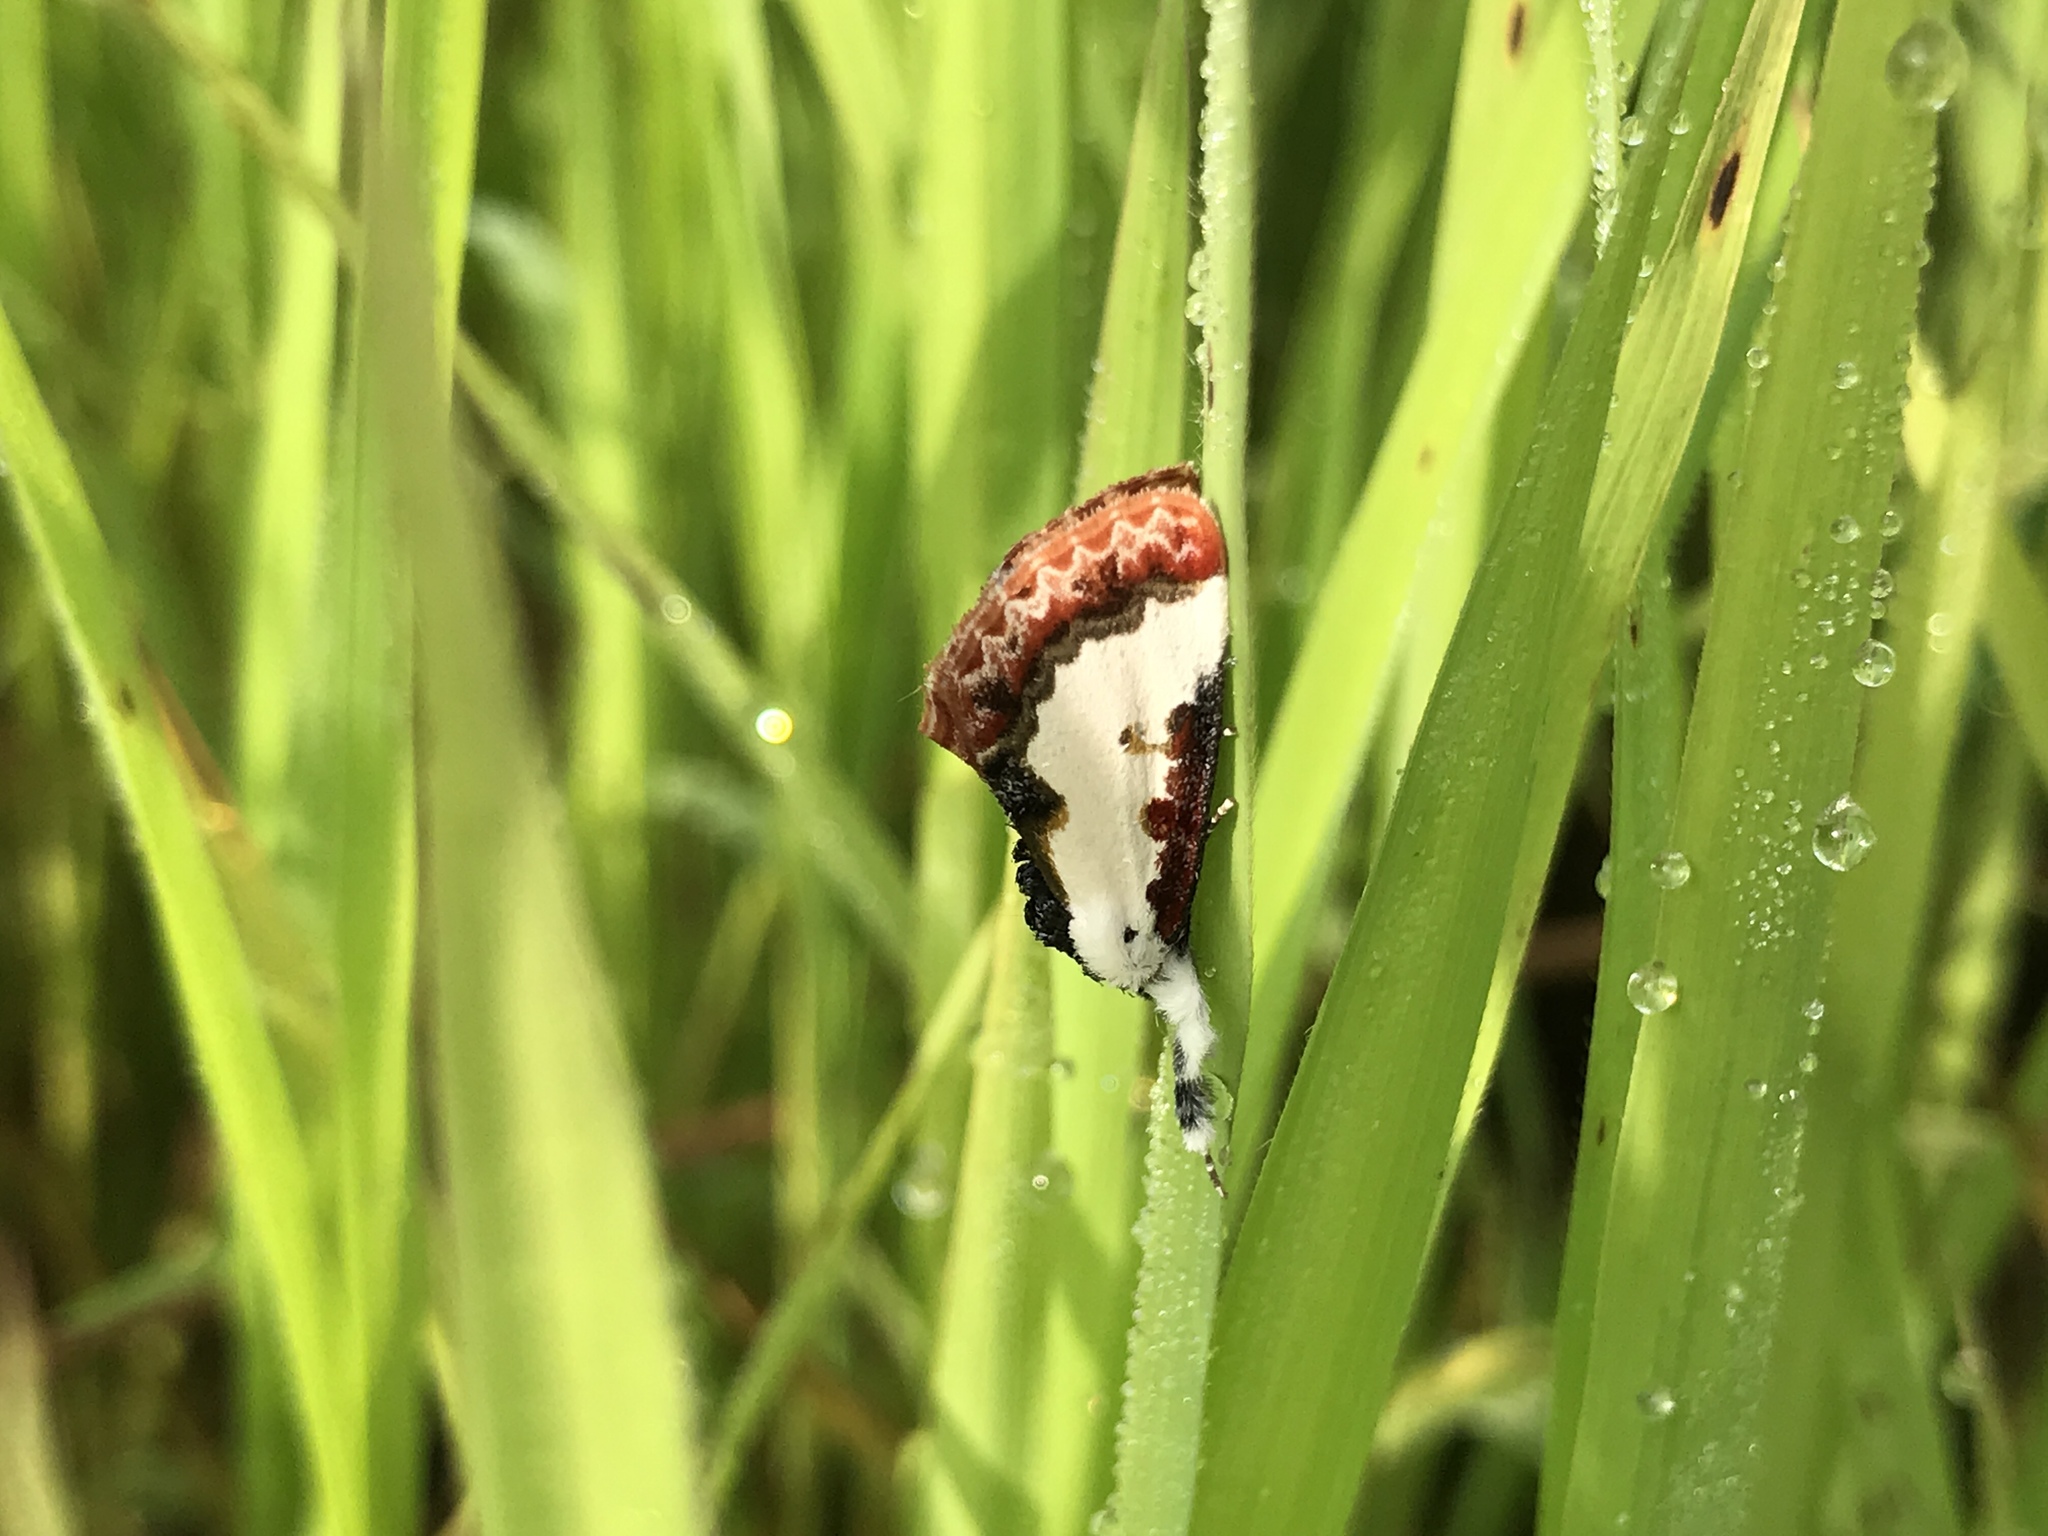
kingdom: Animalia
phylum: Arthropoda
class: Insecta
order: Lepidoptera
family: Noctuidae
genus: Eudryas
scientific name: Eudryas unio
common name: Pearly wood-nymph
